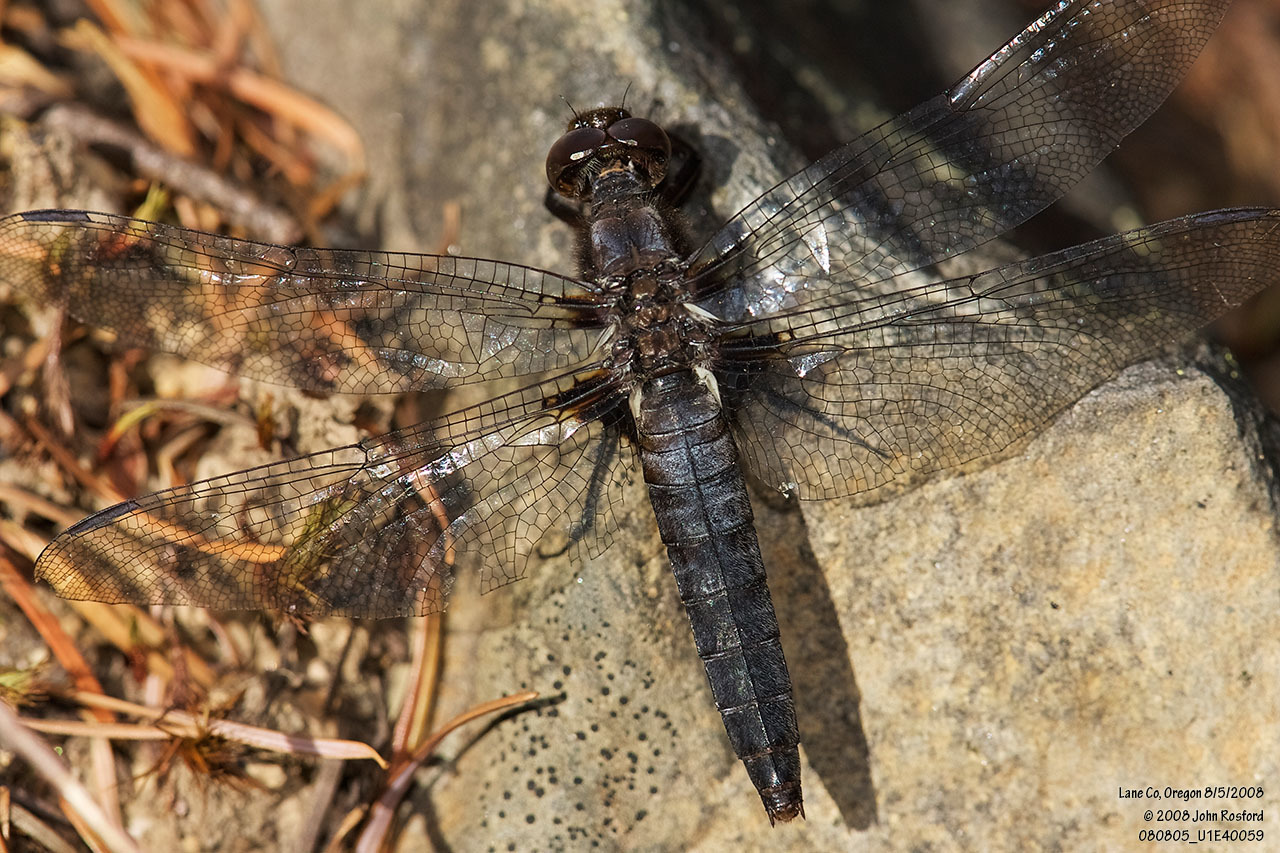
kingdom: Animalia
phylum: Arthropoda
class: Insecta
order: Odonata
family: Libellulidae
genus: Ladona
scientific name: Ladona julia
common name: Chalk-fronted corporal
